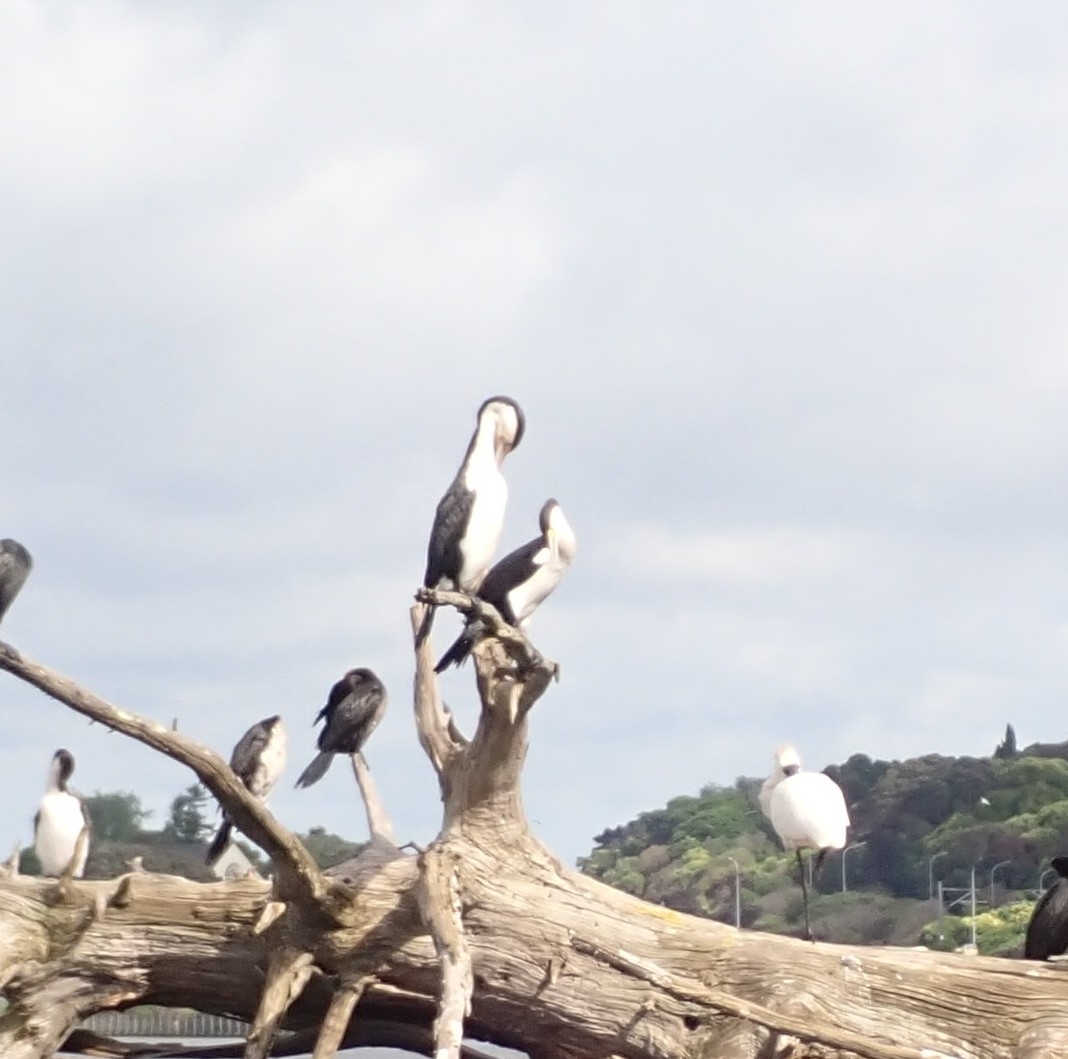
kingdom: Animalia
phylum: Chordata
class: Aves
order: Suliformes
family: Phalacrocoracidae
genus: Phalacrocorax
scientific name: Phalacrocorax varius
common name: Pied cormorant
